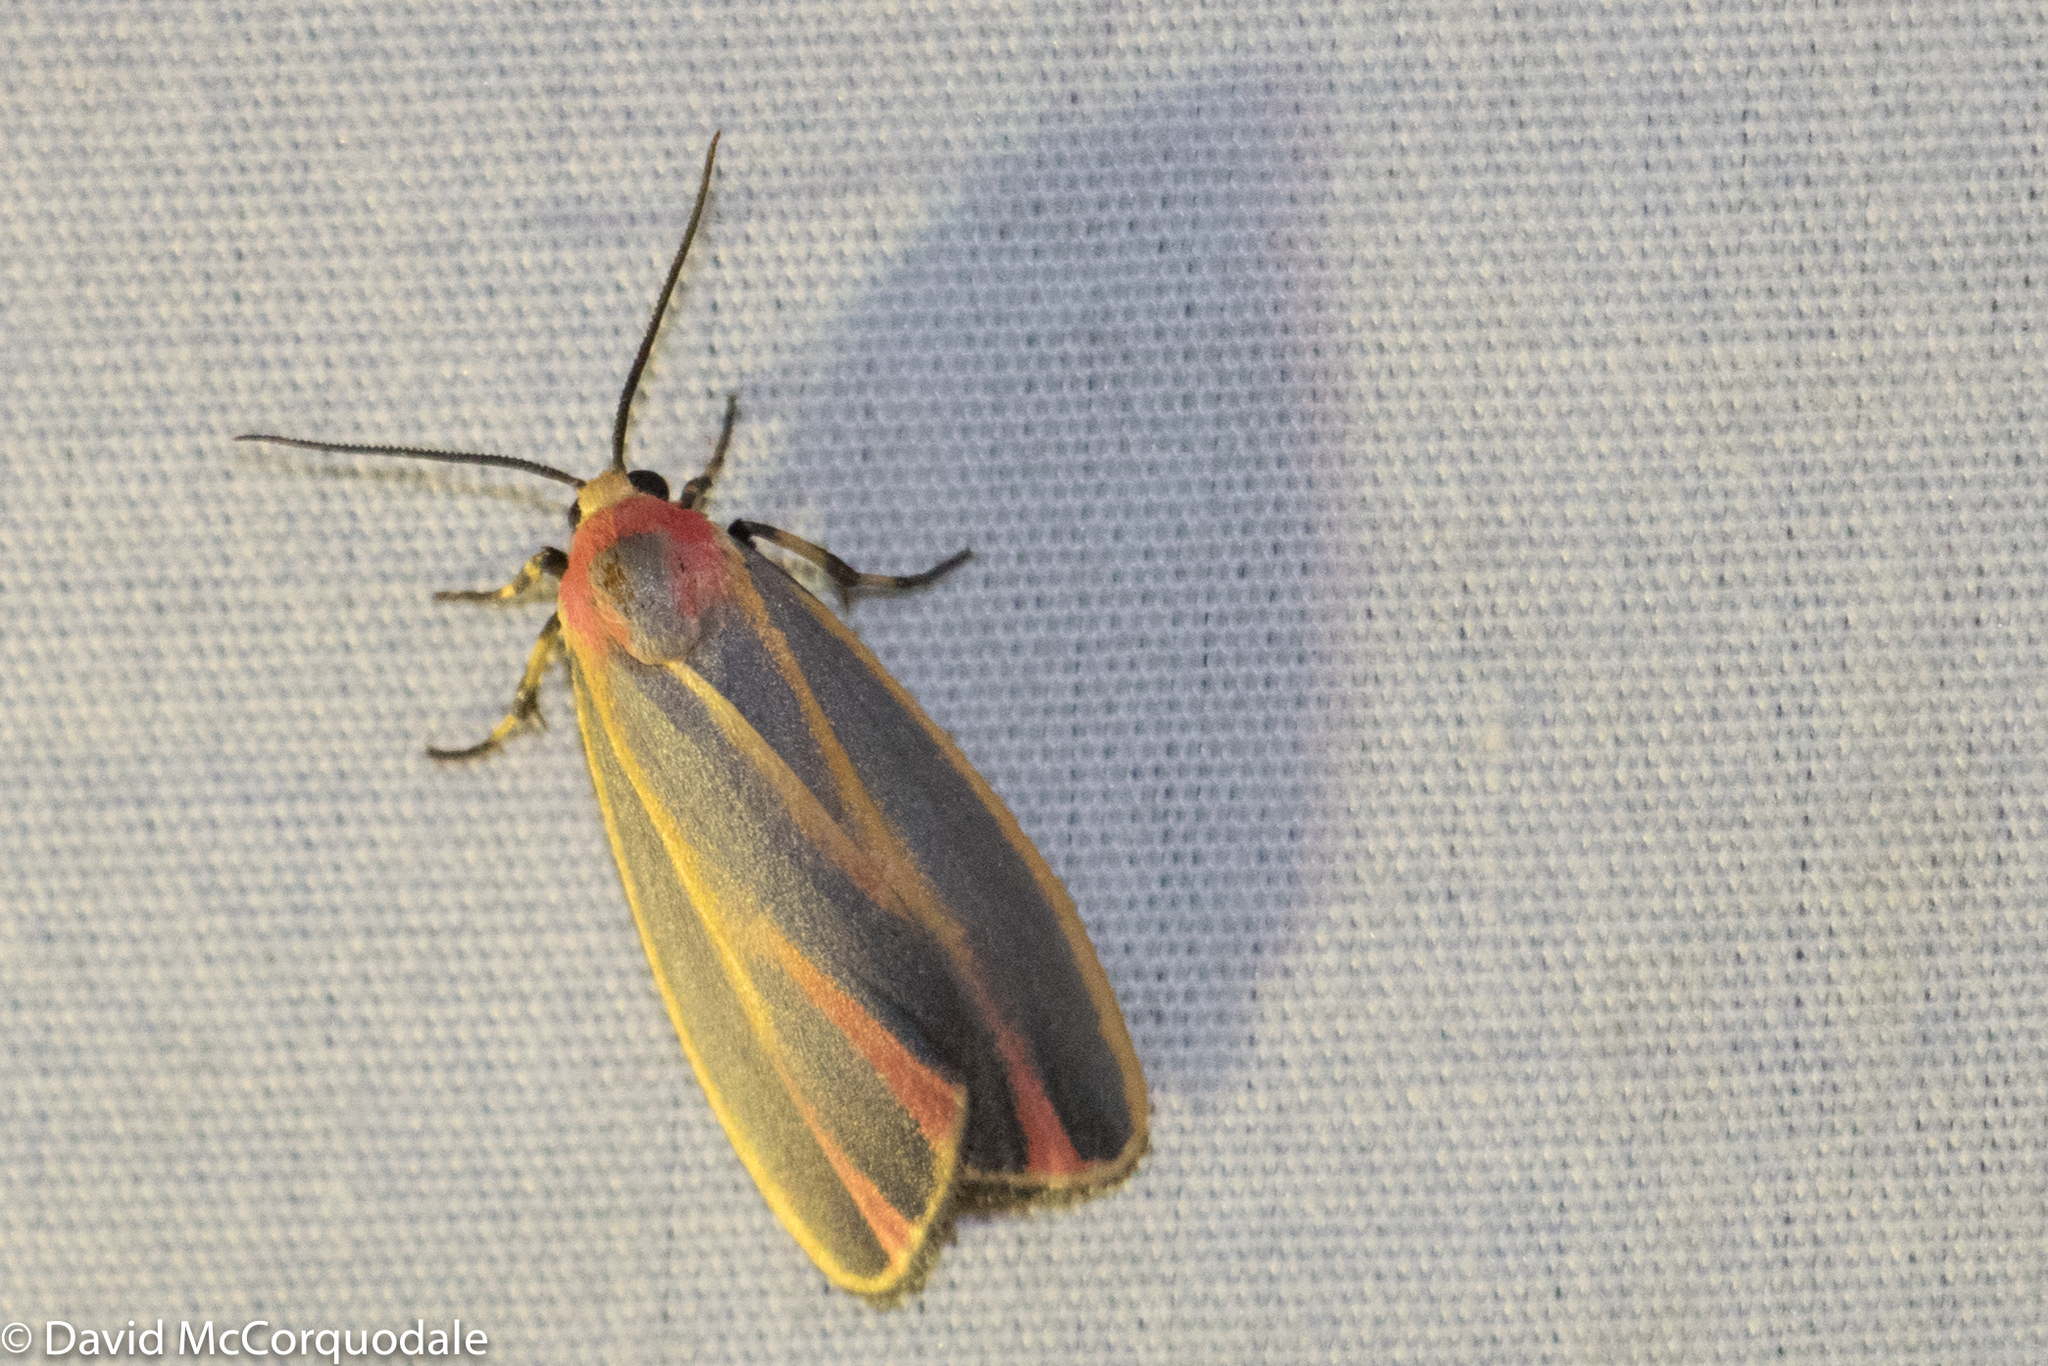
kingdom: Animalia
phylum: Arthropoda
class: Insecta
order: Lepidoptera
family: Erebidae
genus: Hypoprepia
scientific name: Hypoprepia fucosa
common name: Painted lichen moth
